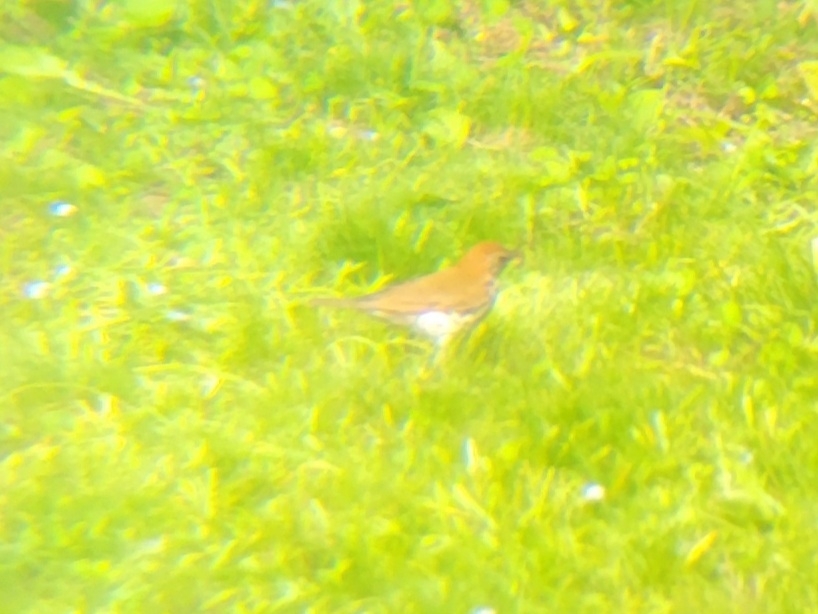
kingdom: Animalia
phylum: Chordata
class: Aves
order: Passeriformes
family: Turdidae
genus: Hylocichla
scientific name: Hylocichla mustelina
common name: Wood thrush
